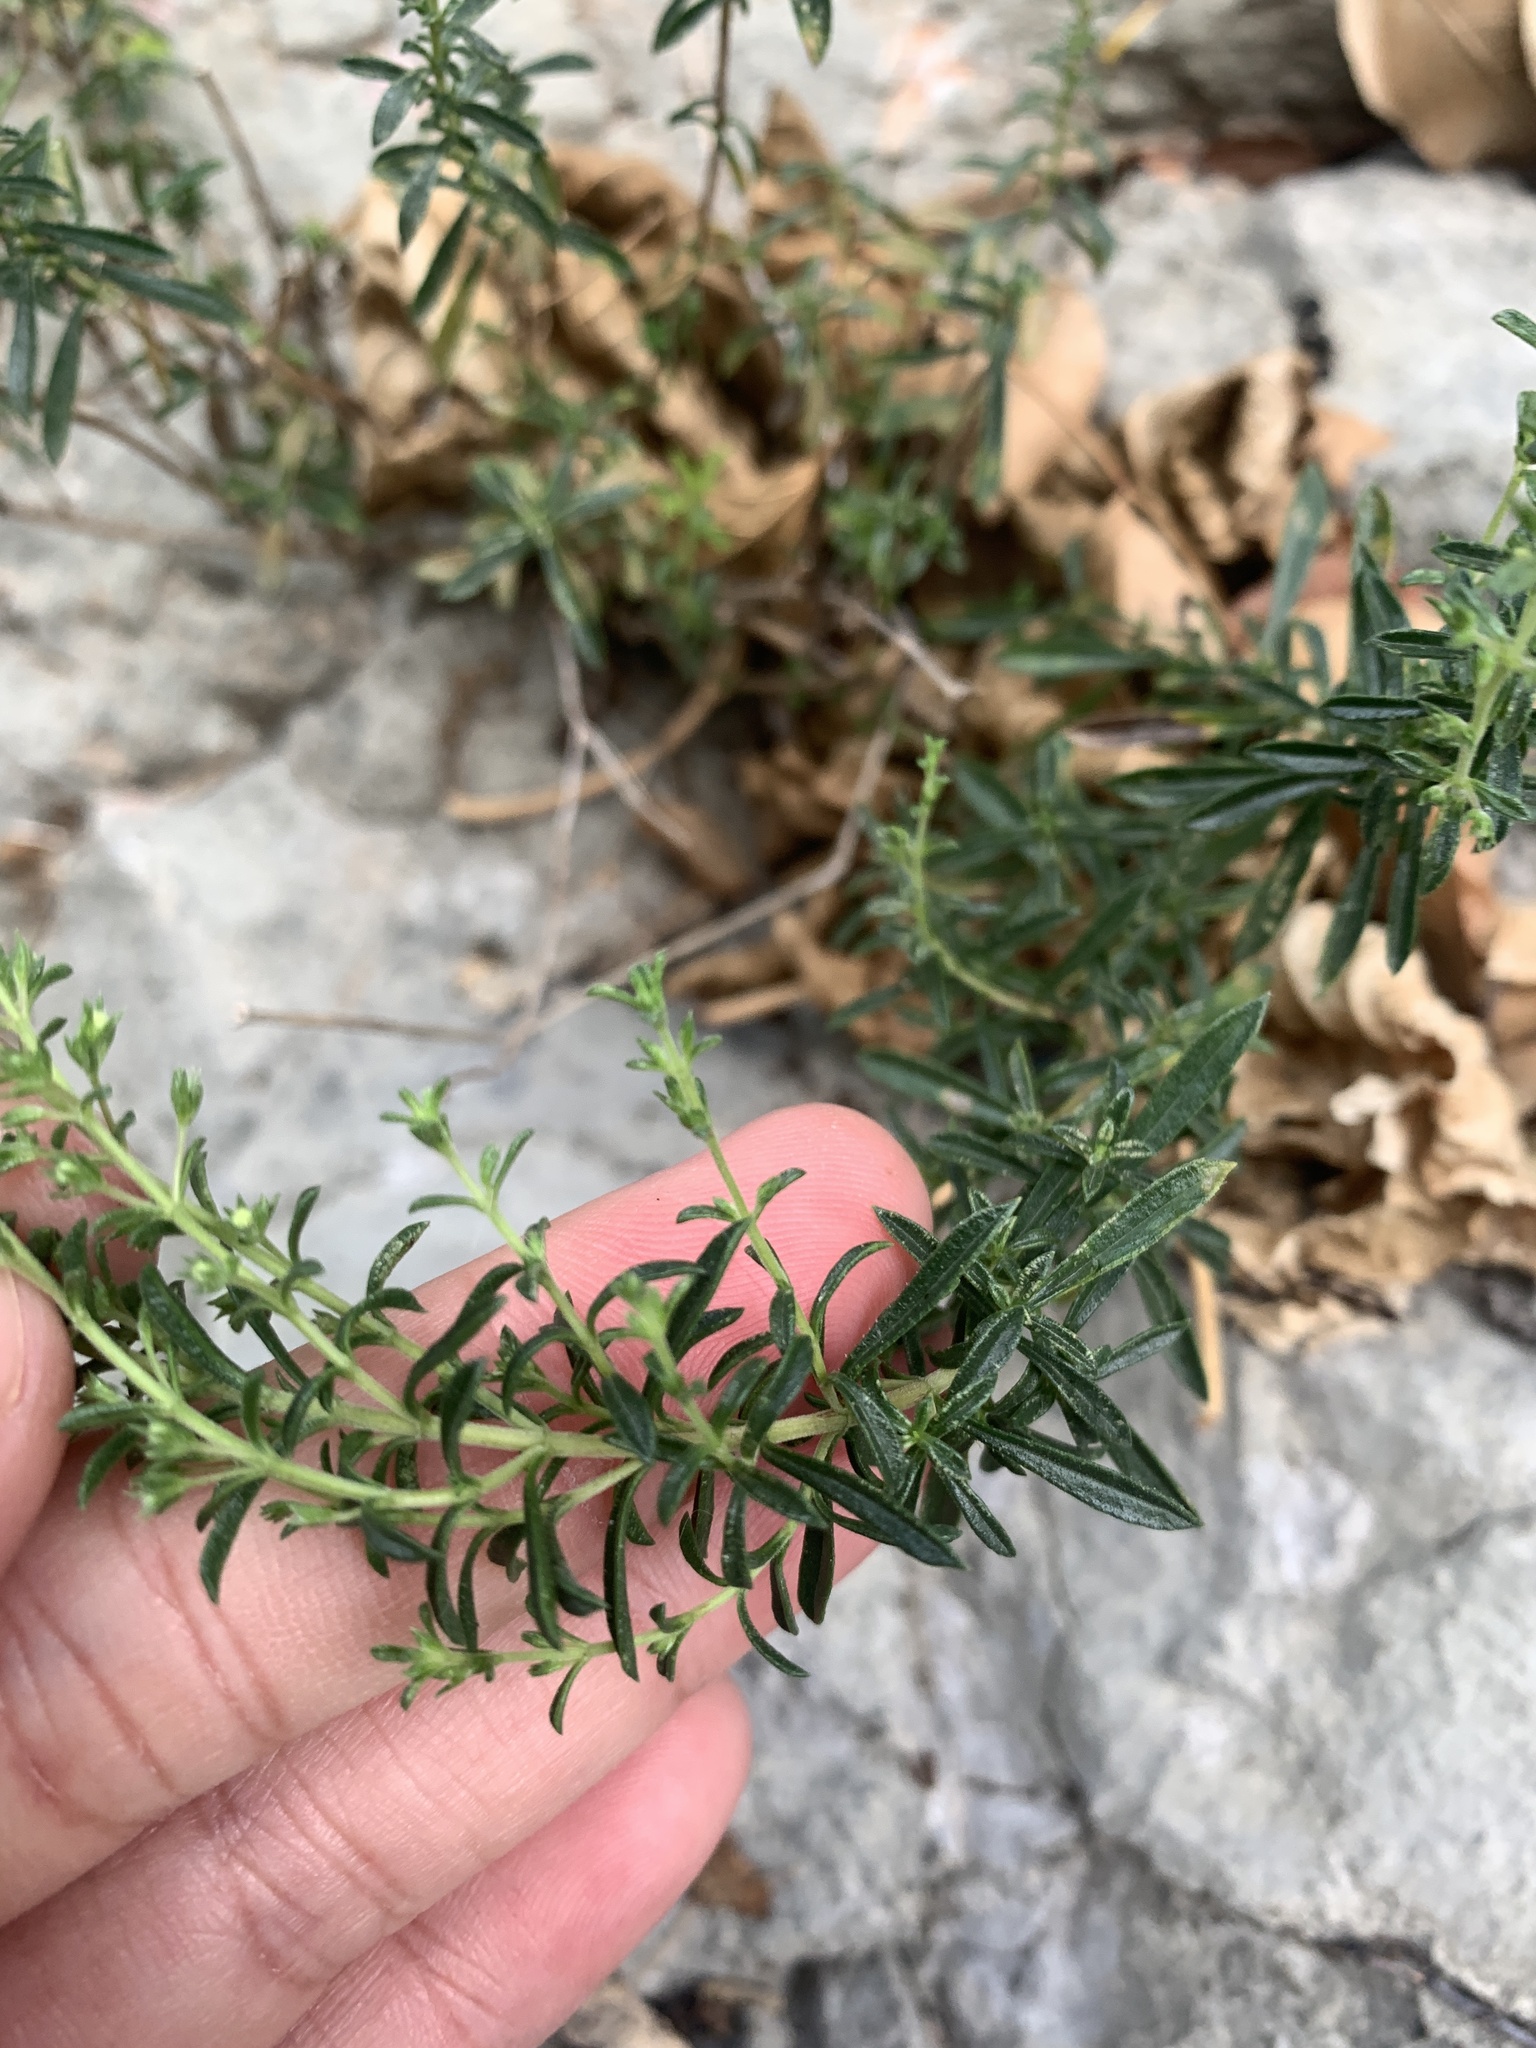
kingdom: Plantae
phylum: Tracheophyta
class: Magnoliopsida
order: Lamiales
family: Lamiaceae
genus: Satureja
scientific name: Satureja montana
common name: Winter savory
